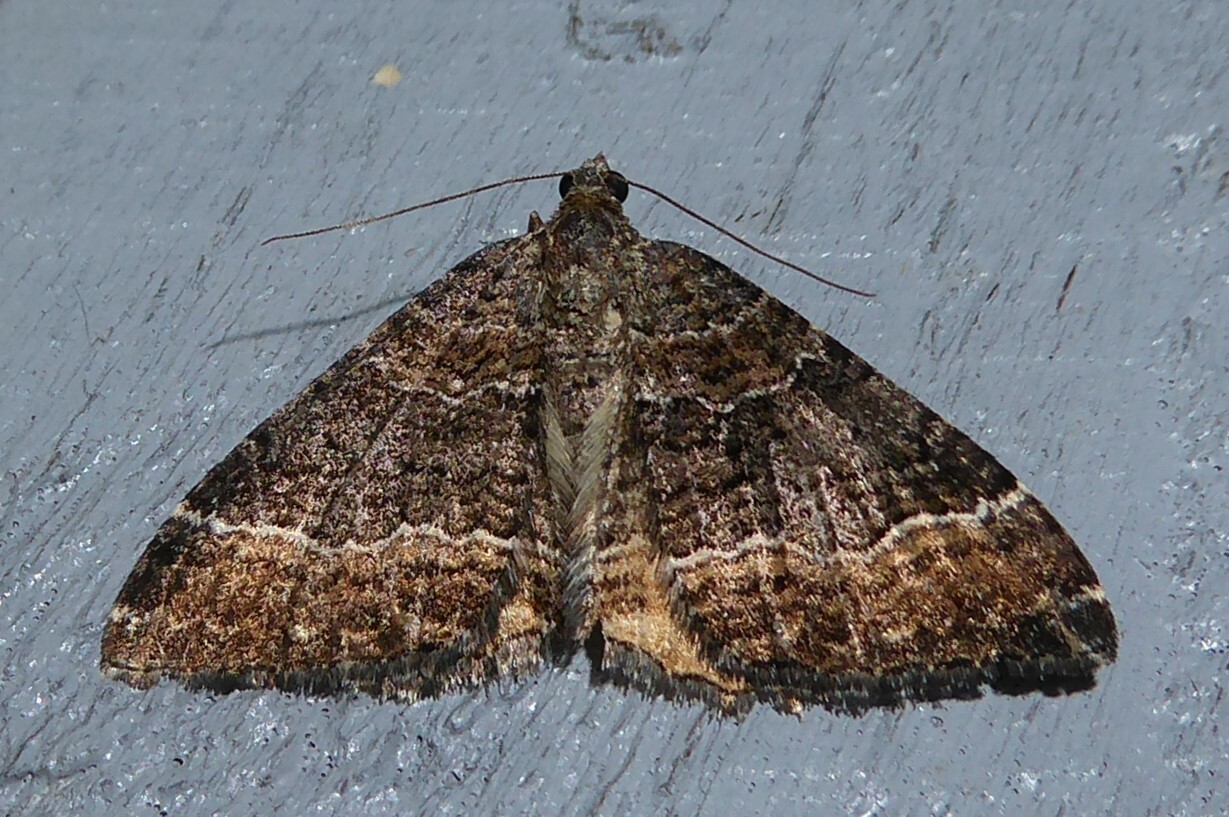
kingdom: Animalia
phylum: Arthropoda
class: Insecta
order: Lepidoptera
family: Geometridae
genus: Hydriomena
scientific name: Hydriomena deltoidata
